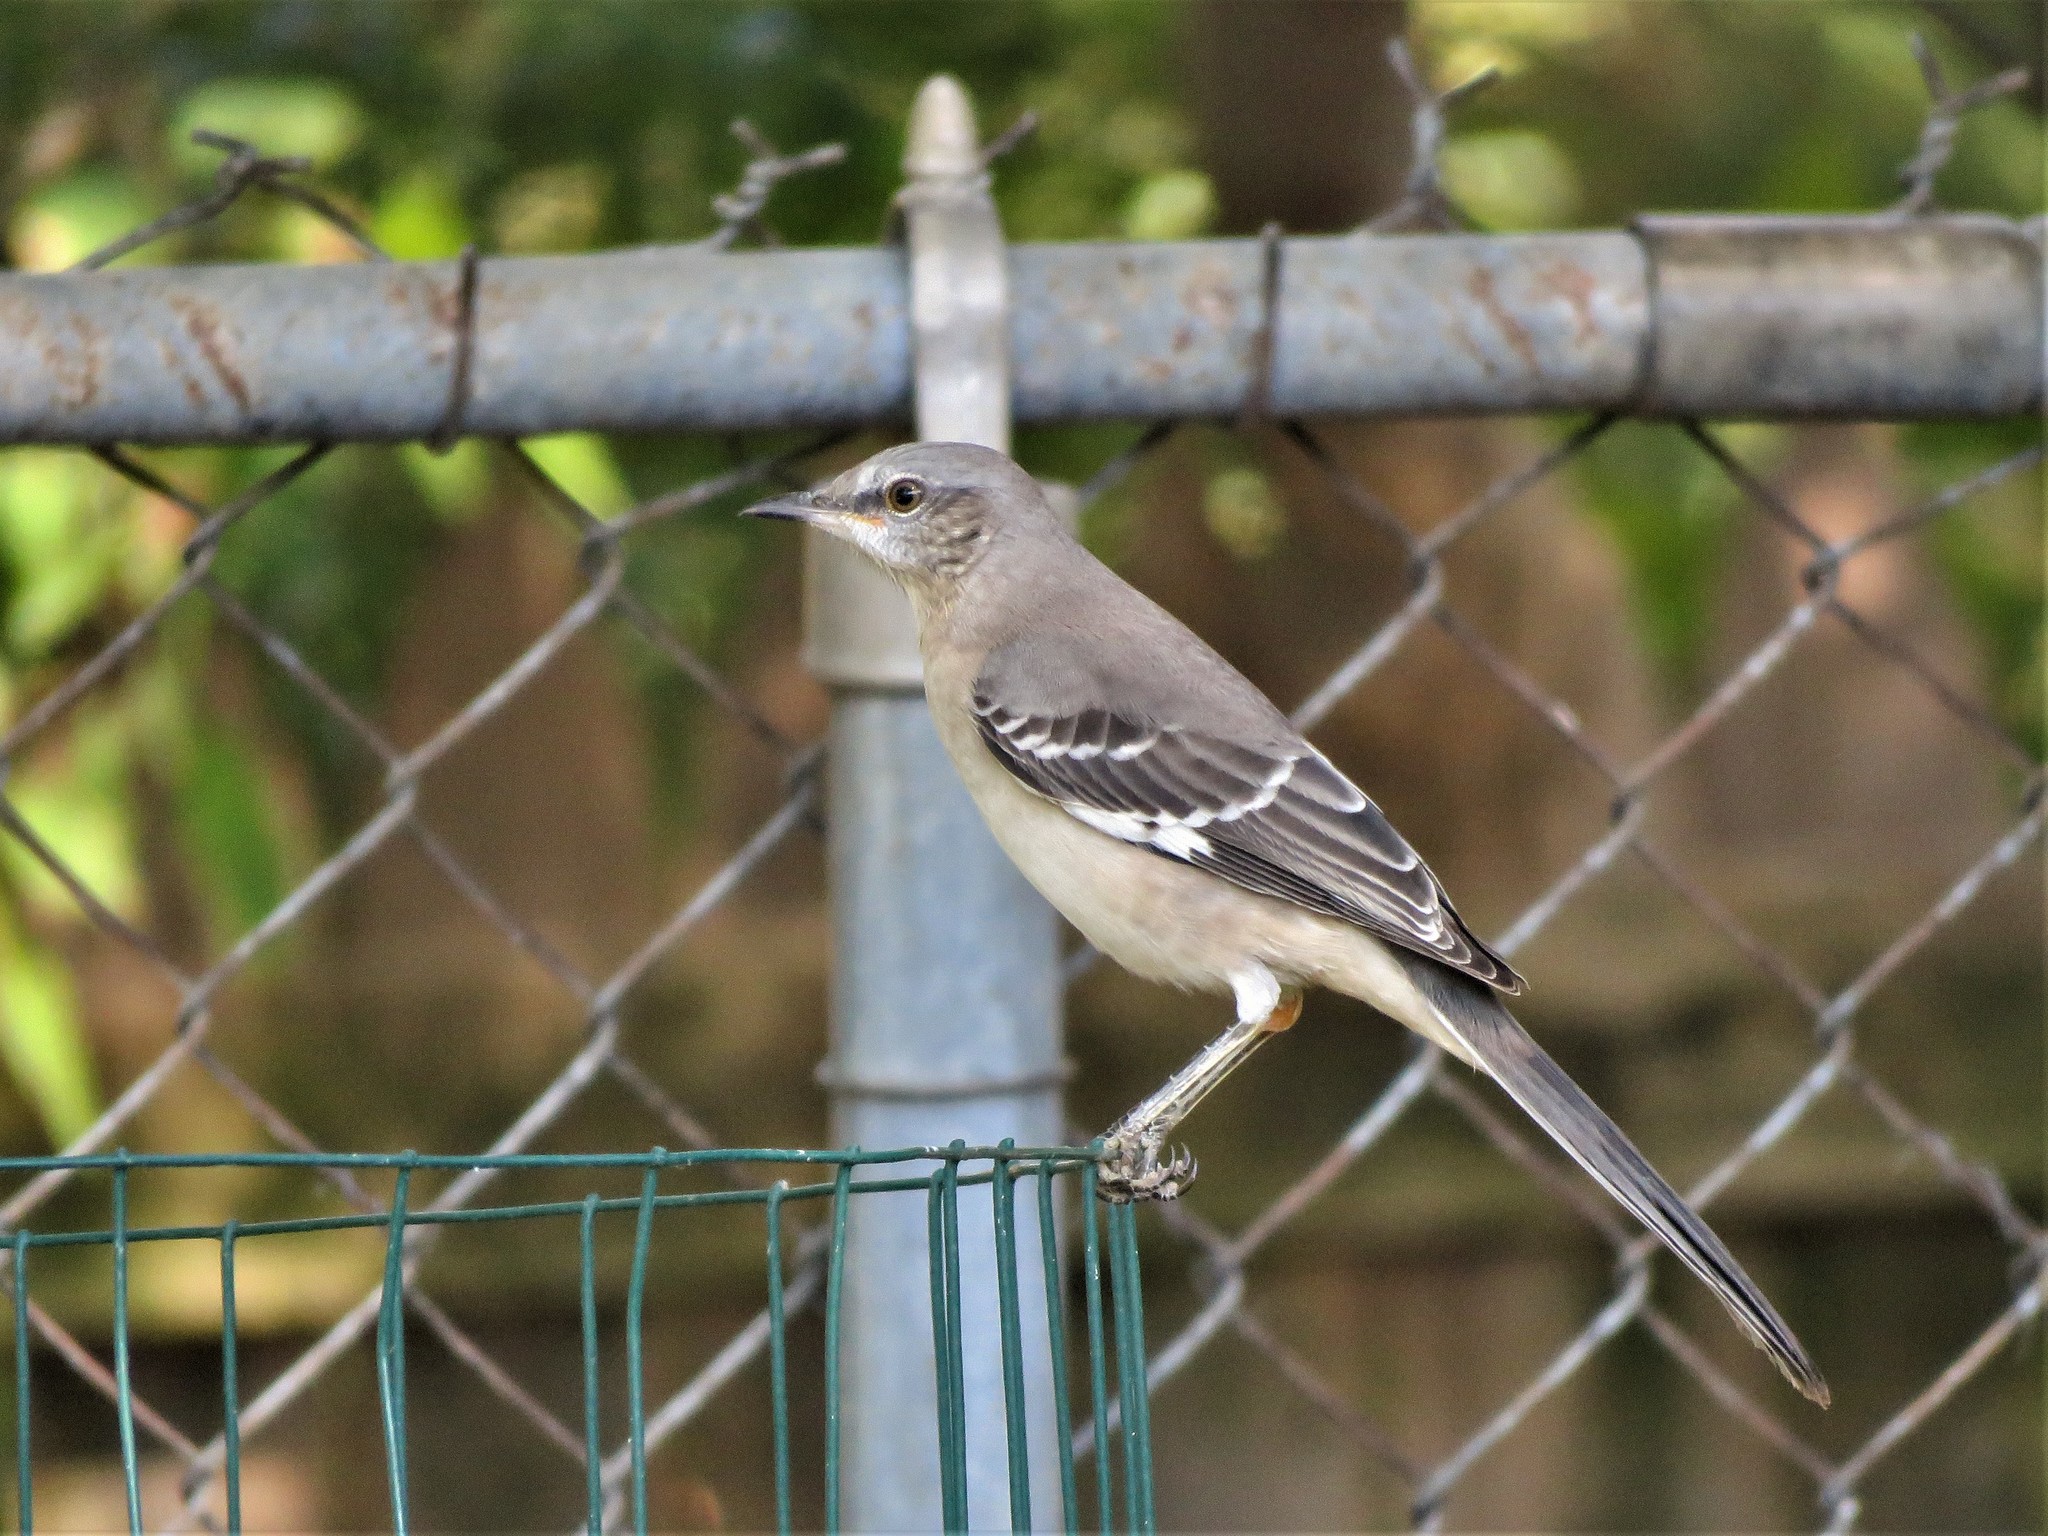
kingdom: Animalia
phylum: Chordata
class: Aves
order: Passeriformes
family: Mimidae
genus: Mimus
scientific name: Mimus polyglottos
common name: Northern mockingbird
